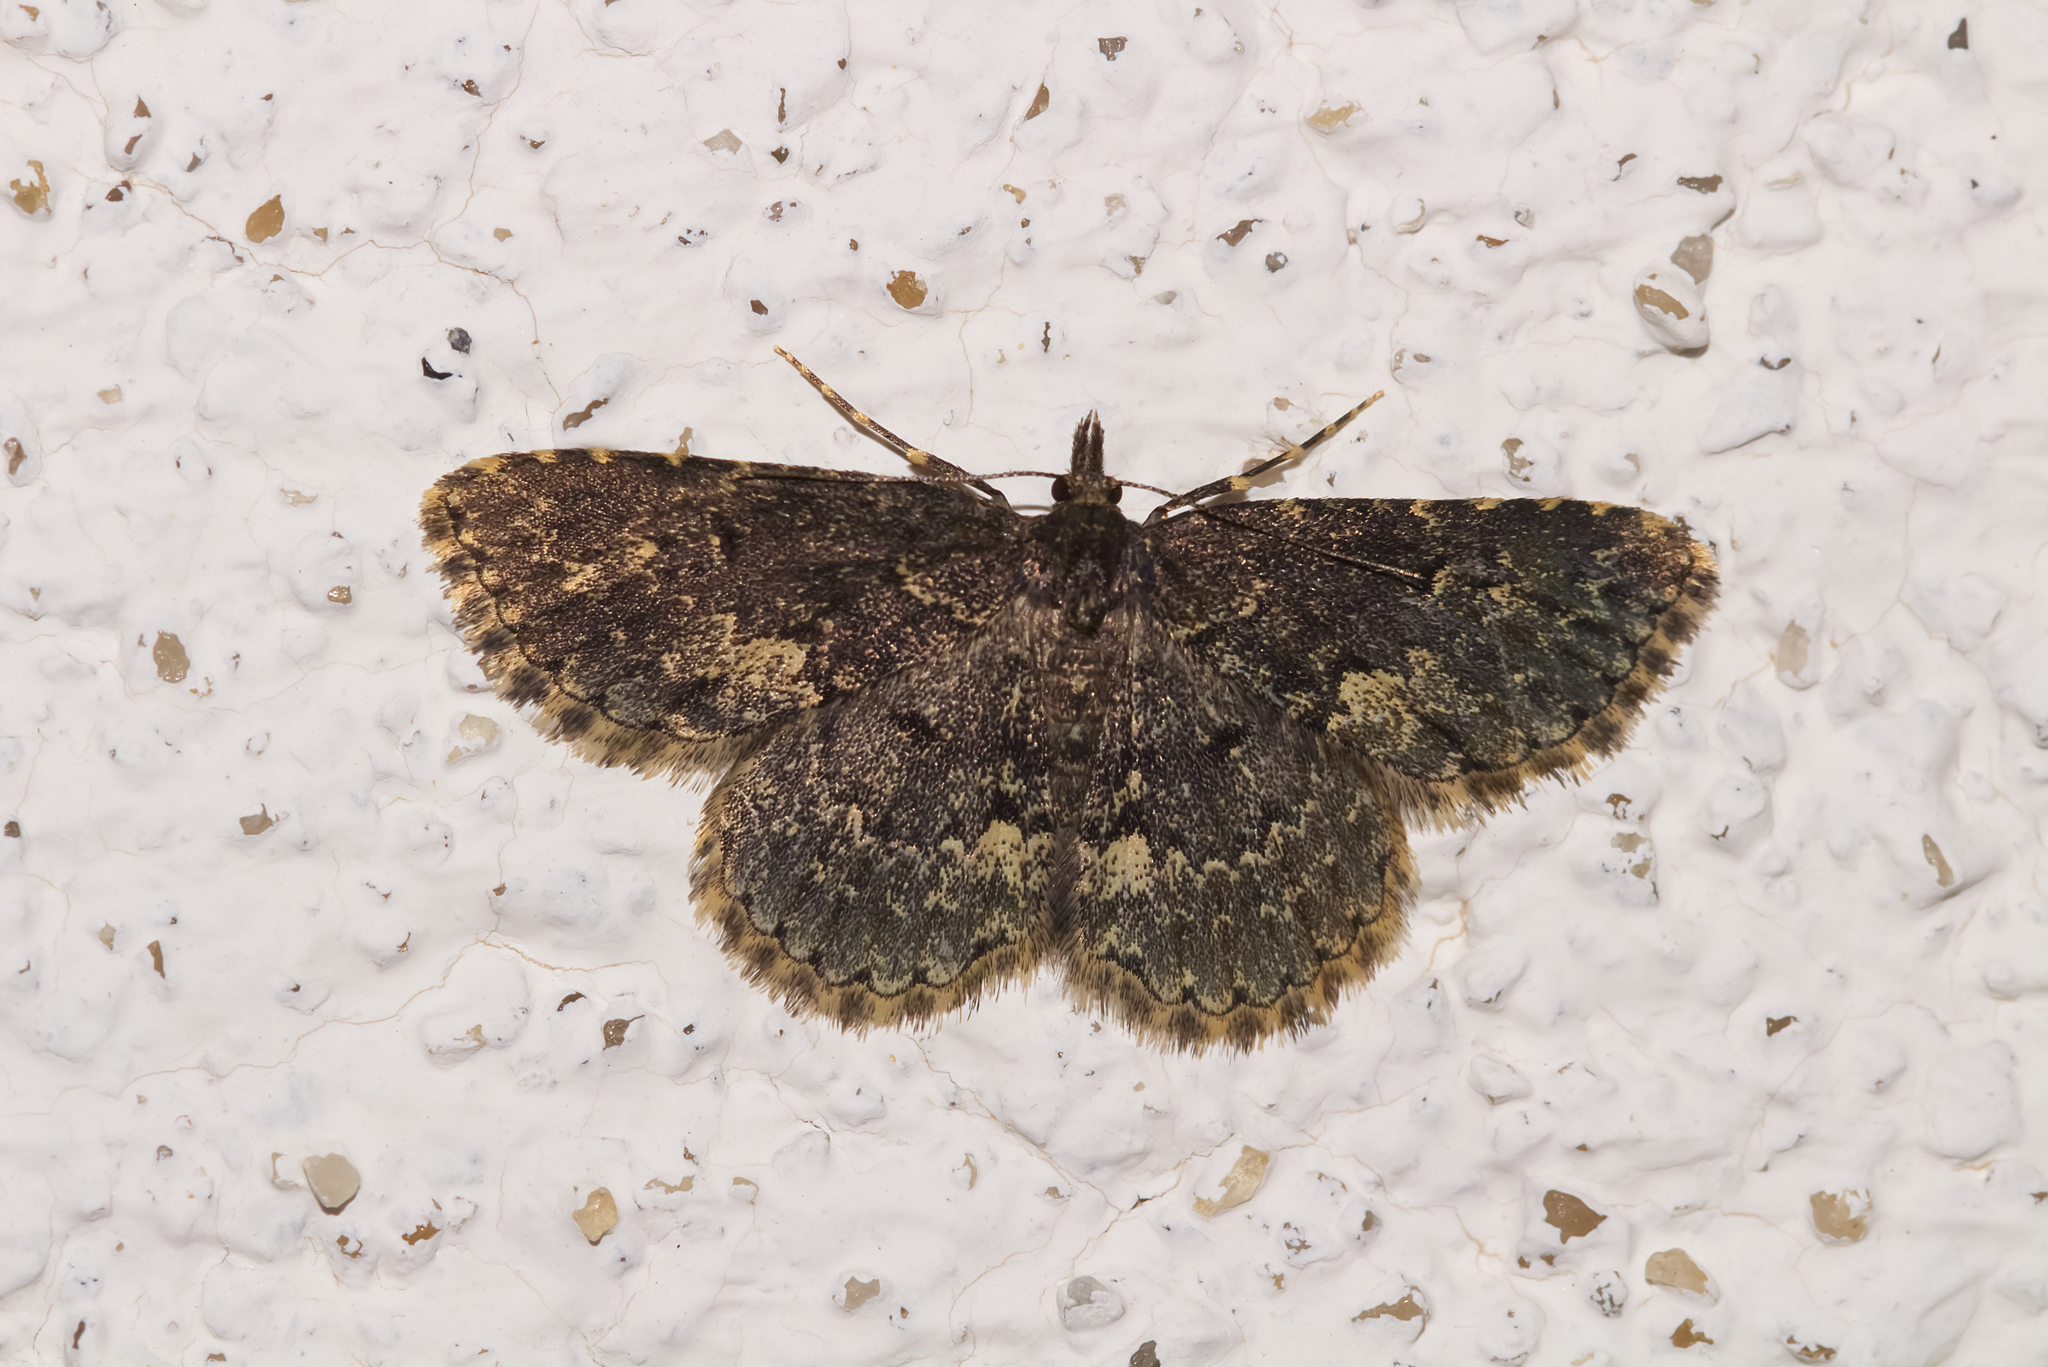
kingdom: Animalia
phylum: Arthropoda
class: Insecta
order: Lepidoptera
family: Erebidae
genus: Parascotia
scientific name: Parascotia fuliginaria
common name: Waved black
